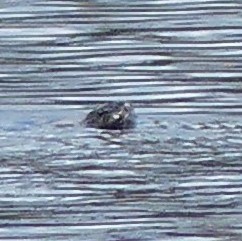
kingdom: Animalia
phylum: Chordata
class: Squamata
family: Colubridae
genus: Nerodia
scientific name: Nerodia sipedon
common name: Northern water snake
